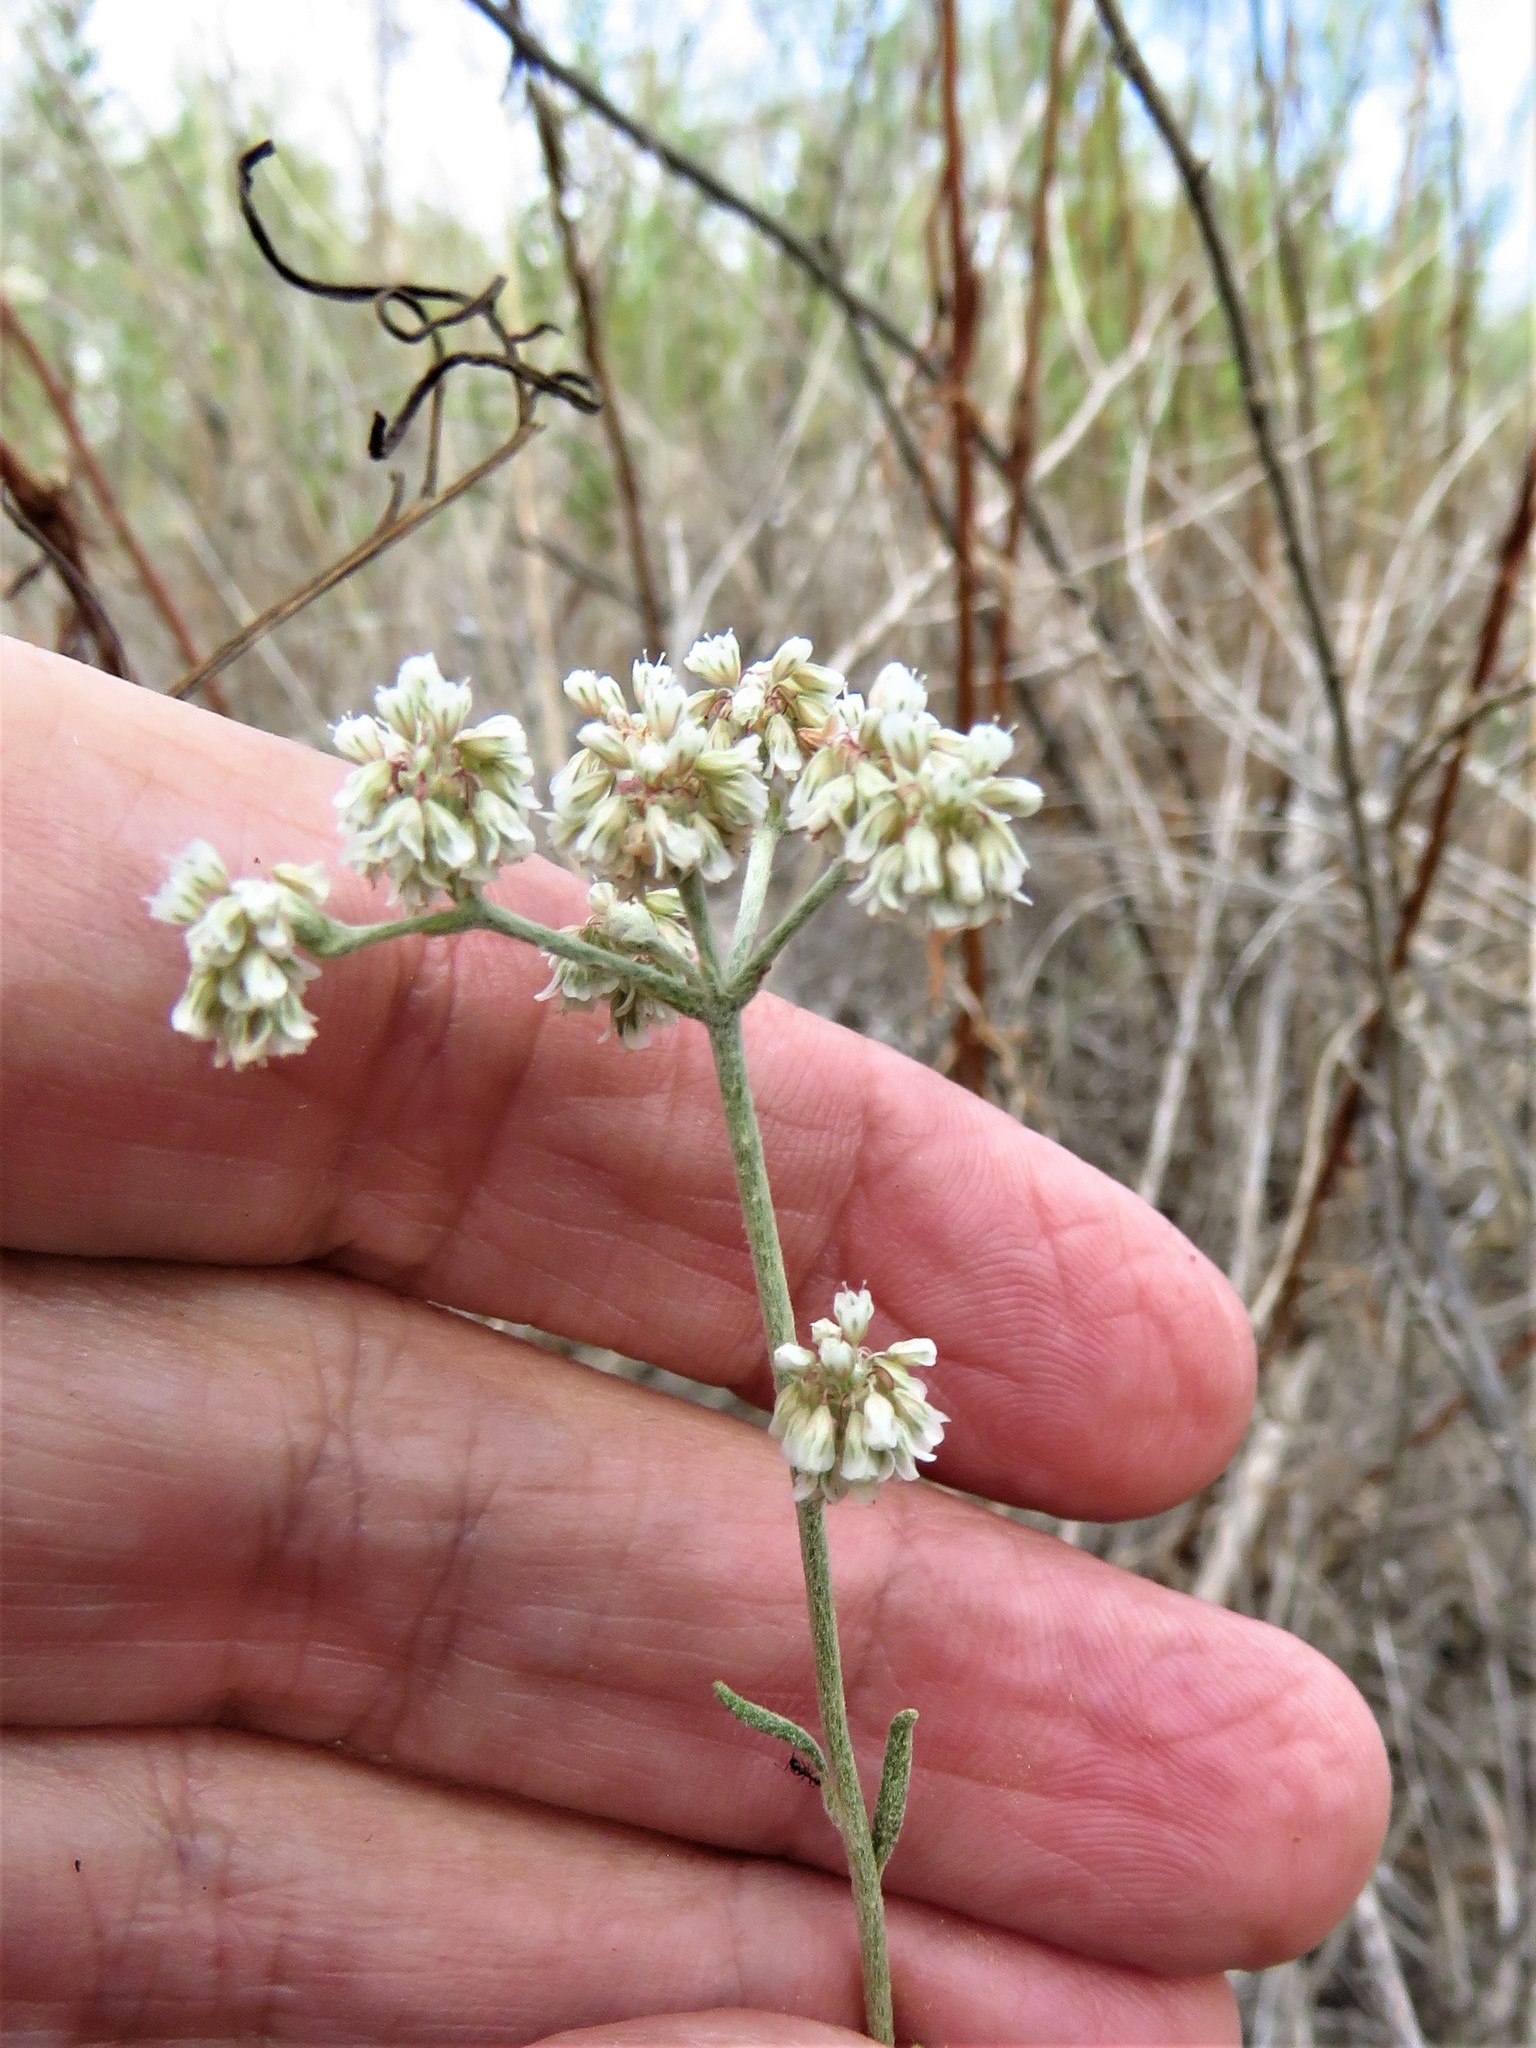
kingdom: Plantae
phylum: Tracheophyta
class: Magnoliopsida
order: Caryophyllales
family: Polygonaceae
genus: Eriogonum
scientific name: Eriogonum annuum
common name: Annual wild buckwheat
